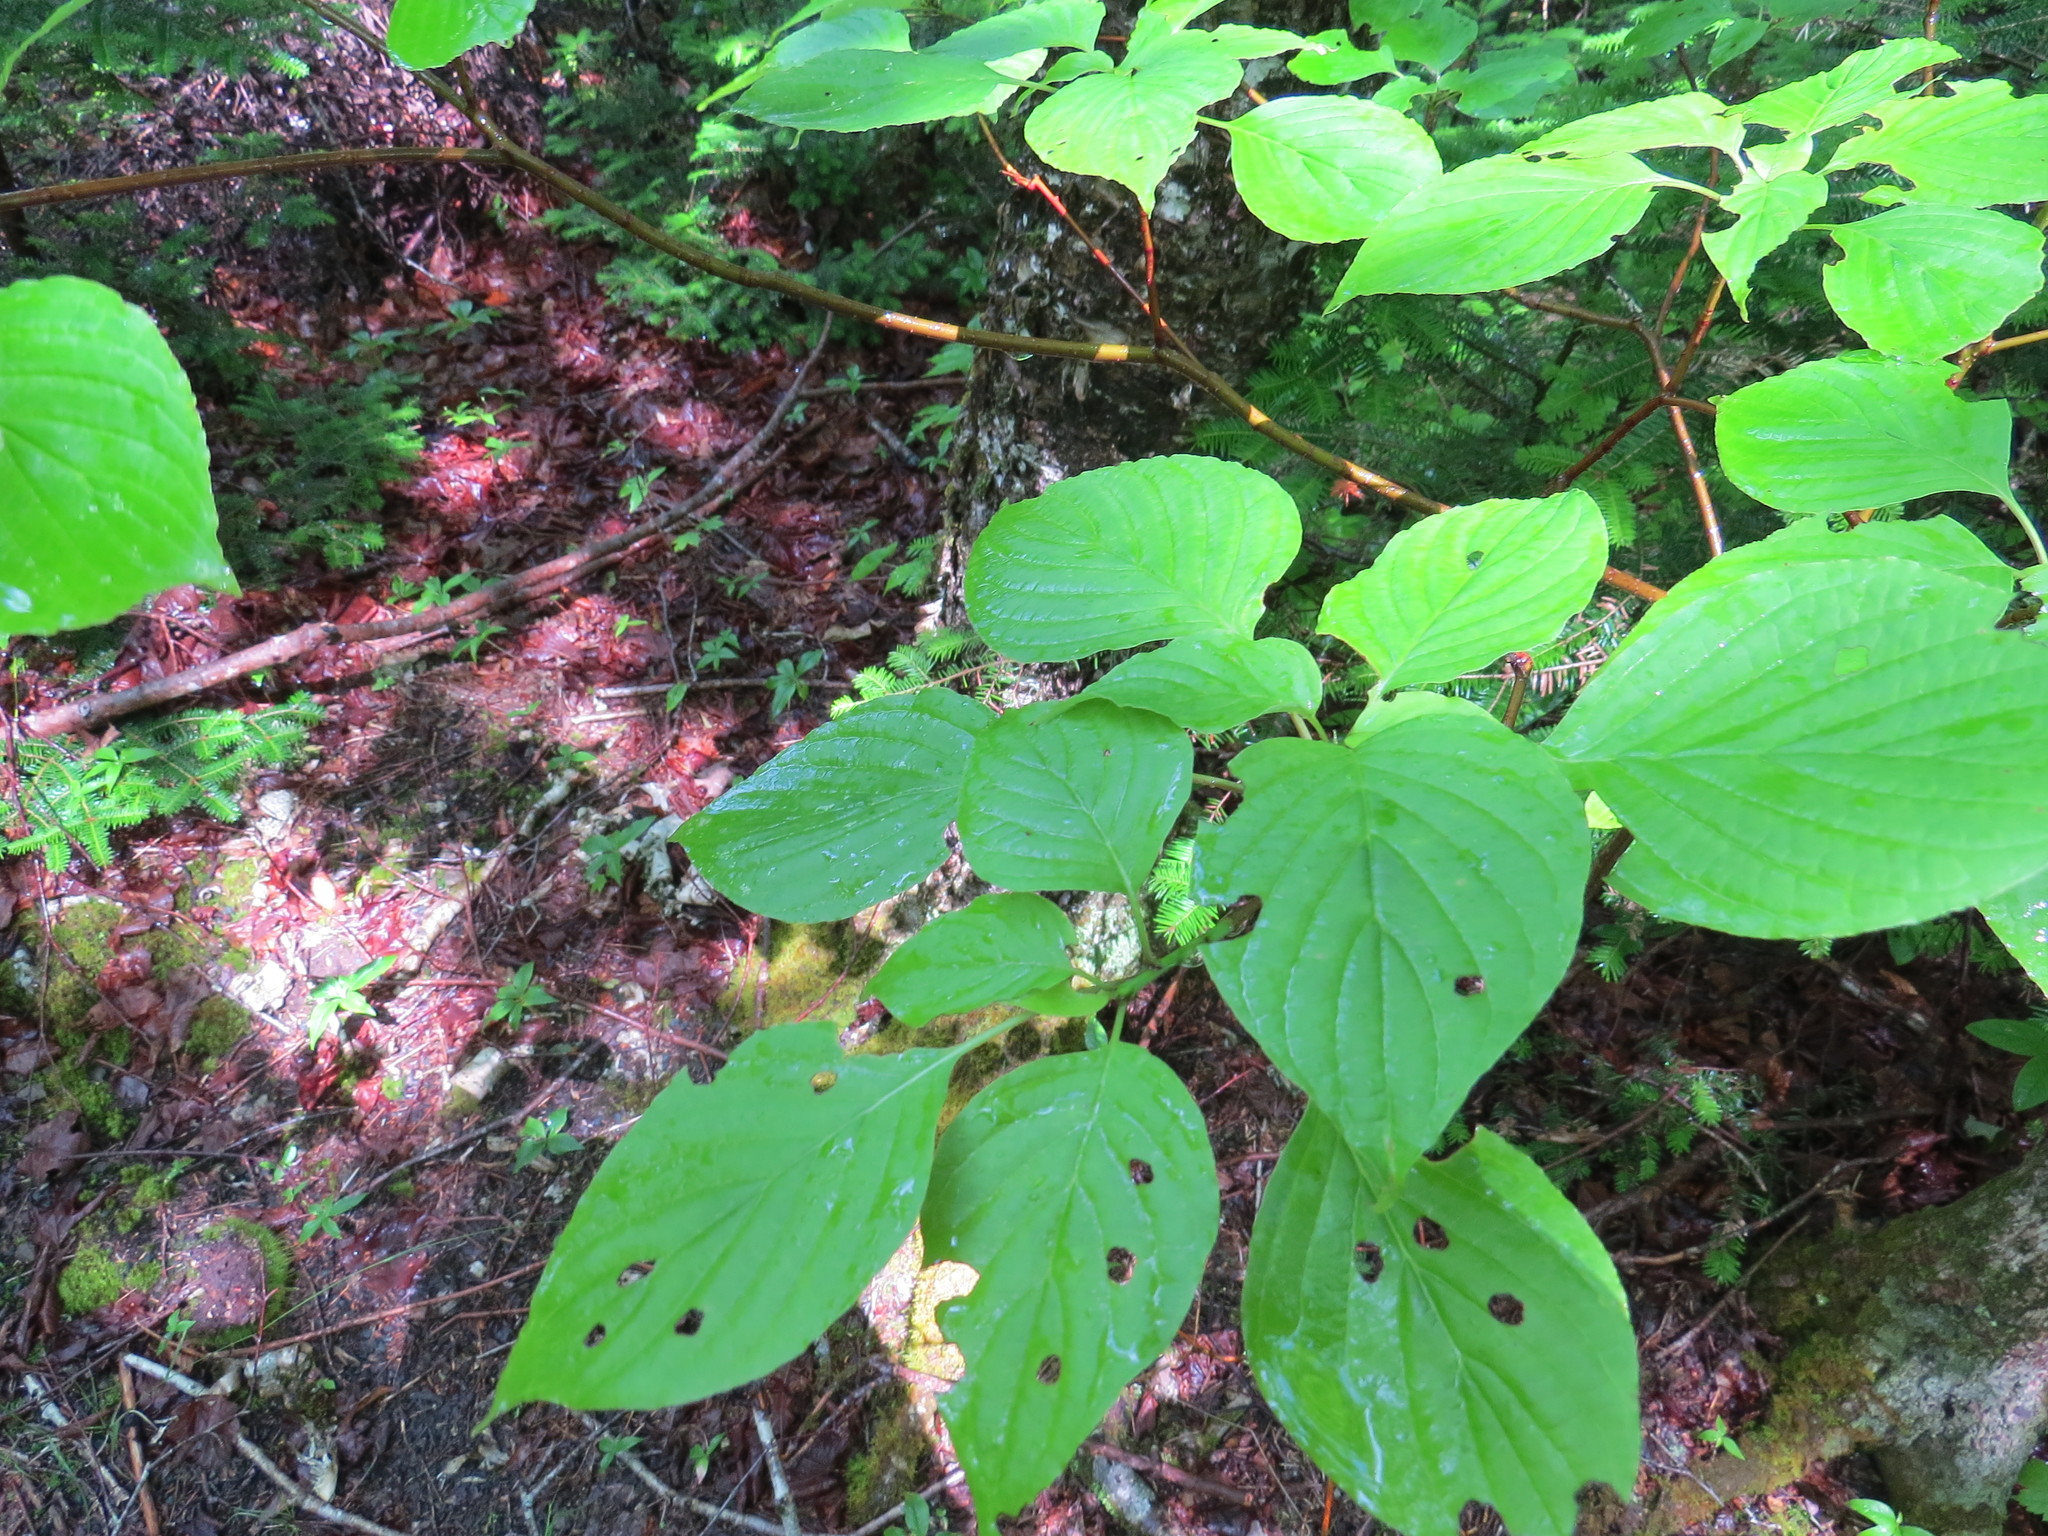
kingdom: Plantae
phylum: Tracheophyta
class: Magnoliopsida
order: Cornales
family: Cornaceae
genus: Cornus
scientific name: Cornus alternifolia
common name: Pagoda dogwood
